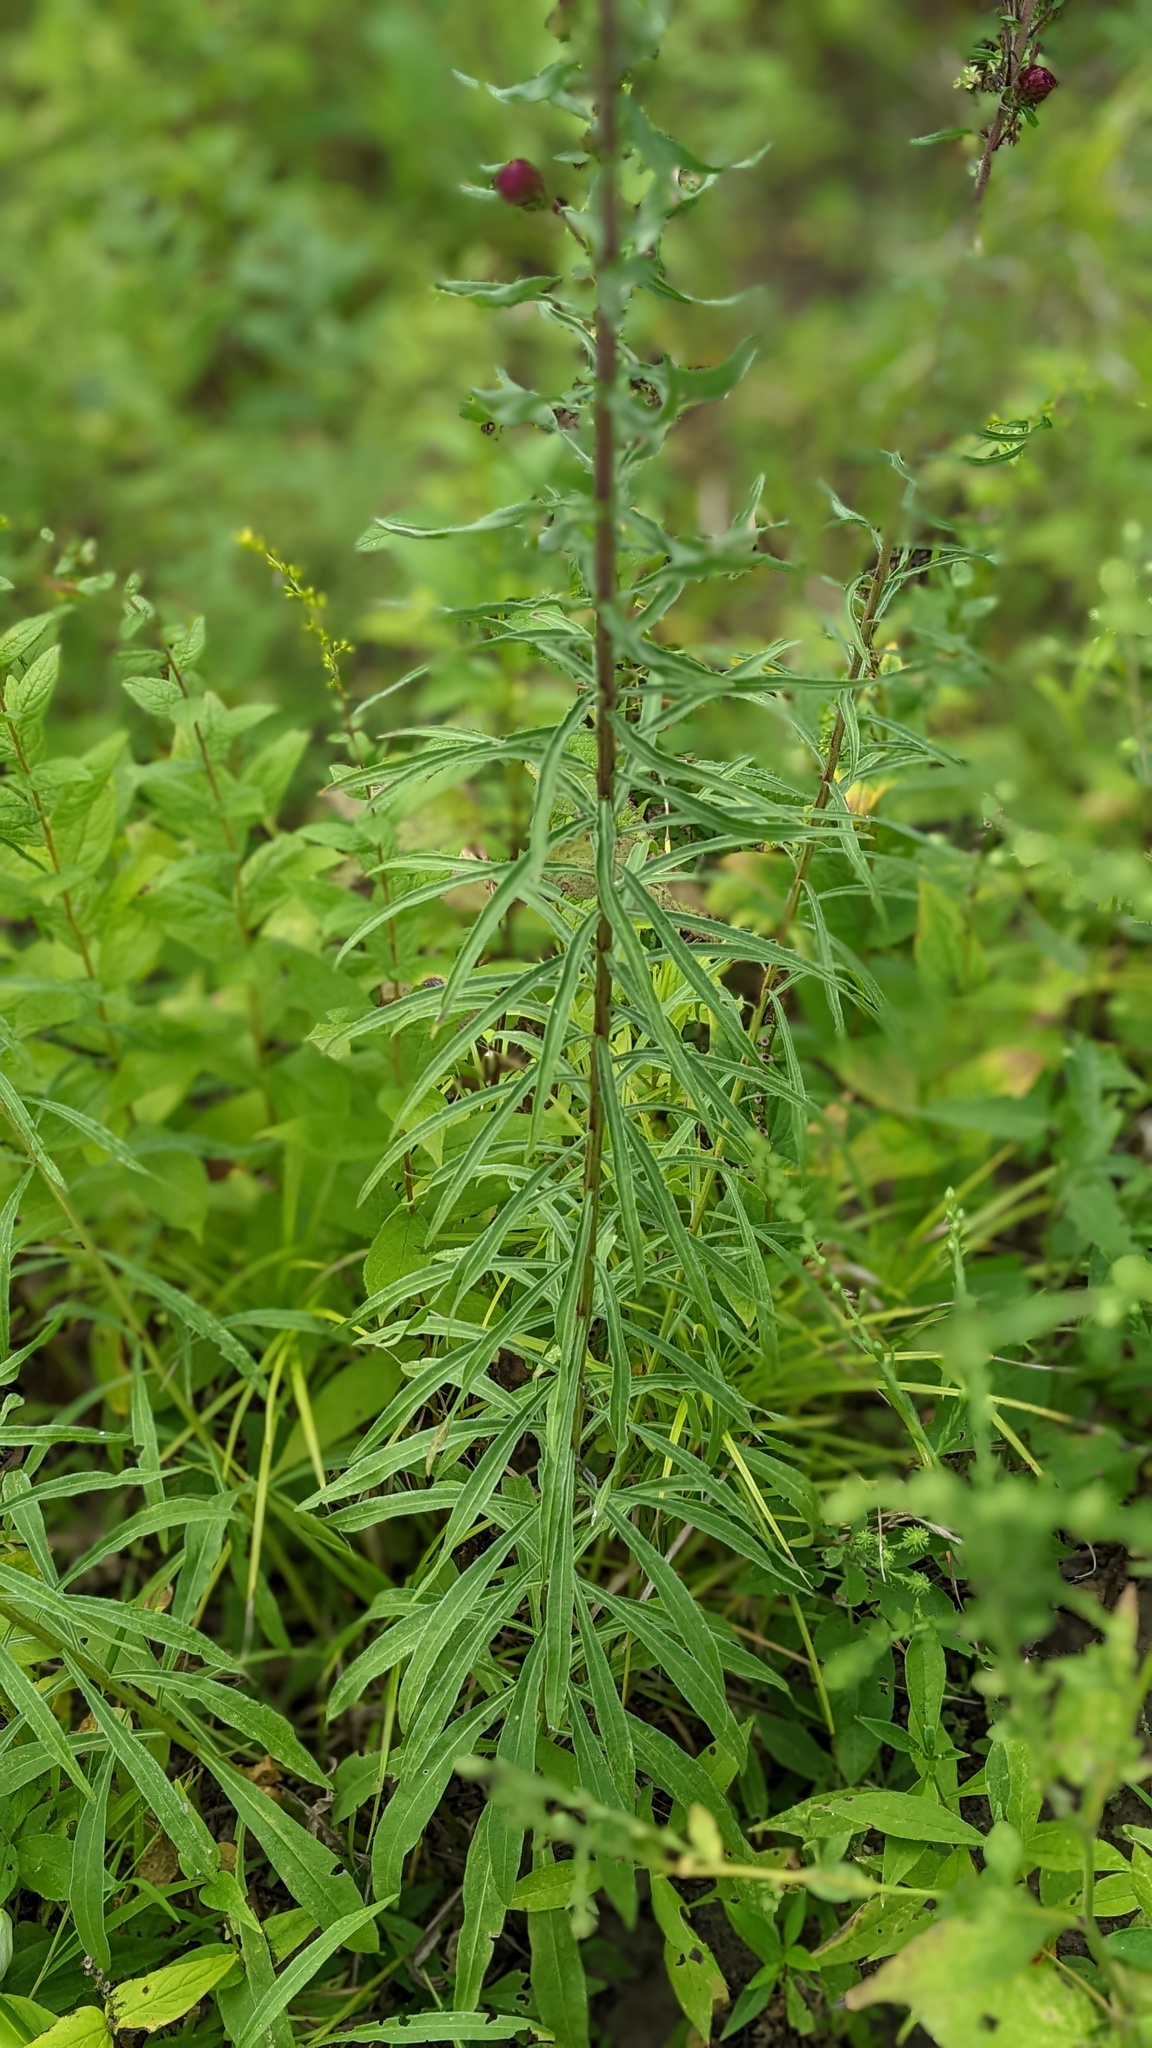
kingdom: Plantae
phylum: Tracheophyta
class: Magnoliopsida
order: Asterales
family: Asteraceae
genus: Liatris
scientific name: Liatris scariosa
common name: Northern gayfeather
